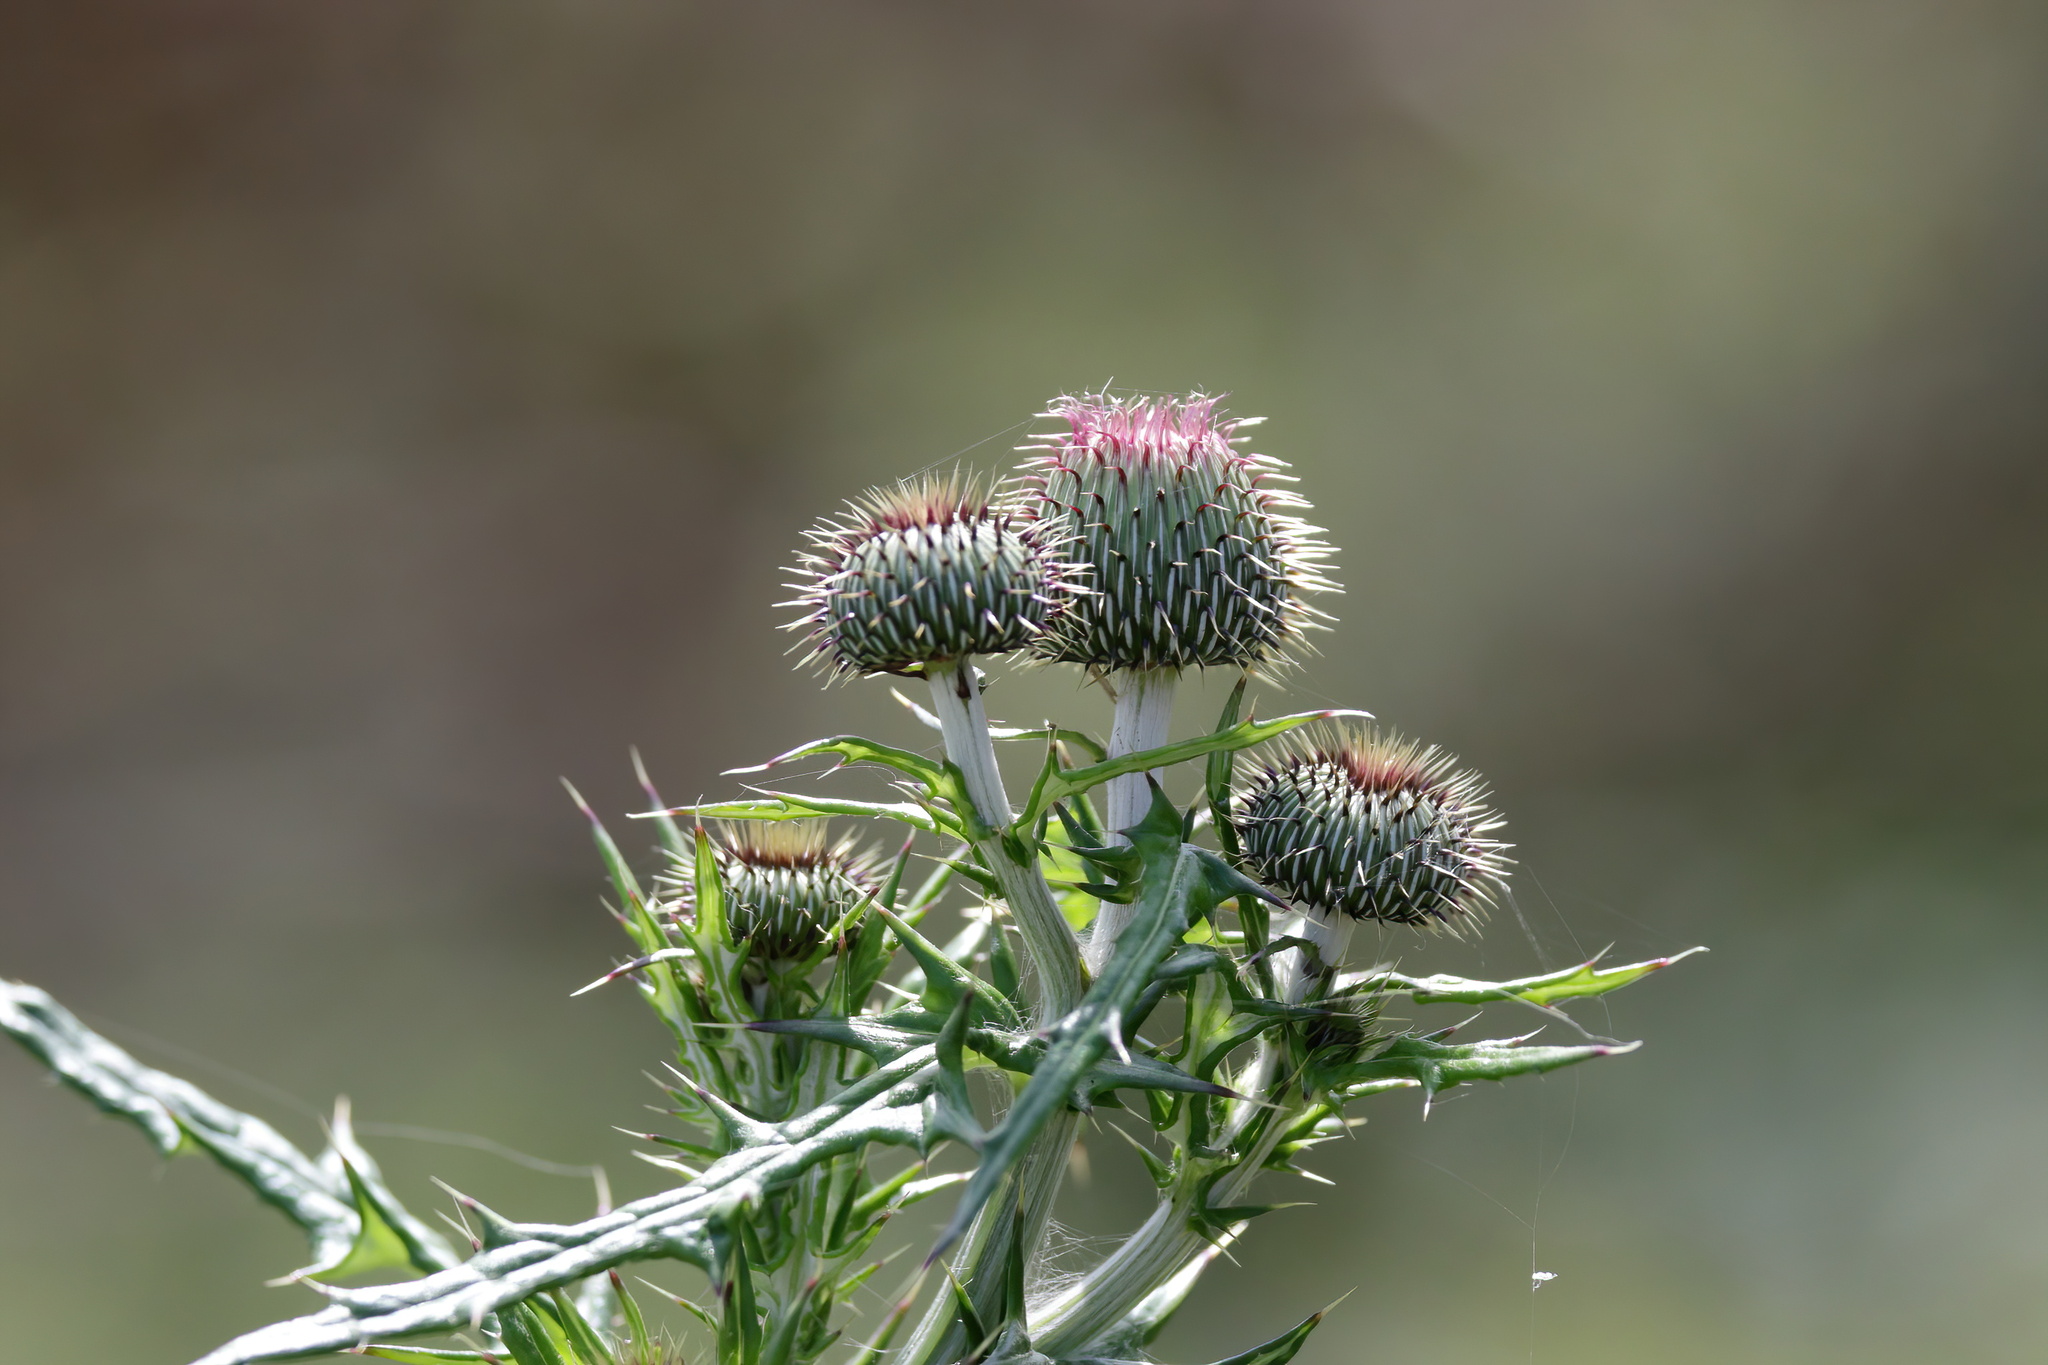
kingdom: Plantae
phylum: Tracheophyta
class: Magnoliopsida
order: Asterales
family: Asteraceae
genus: Cirsium
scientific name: Cirsium texanum
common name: Texas purple thistle
